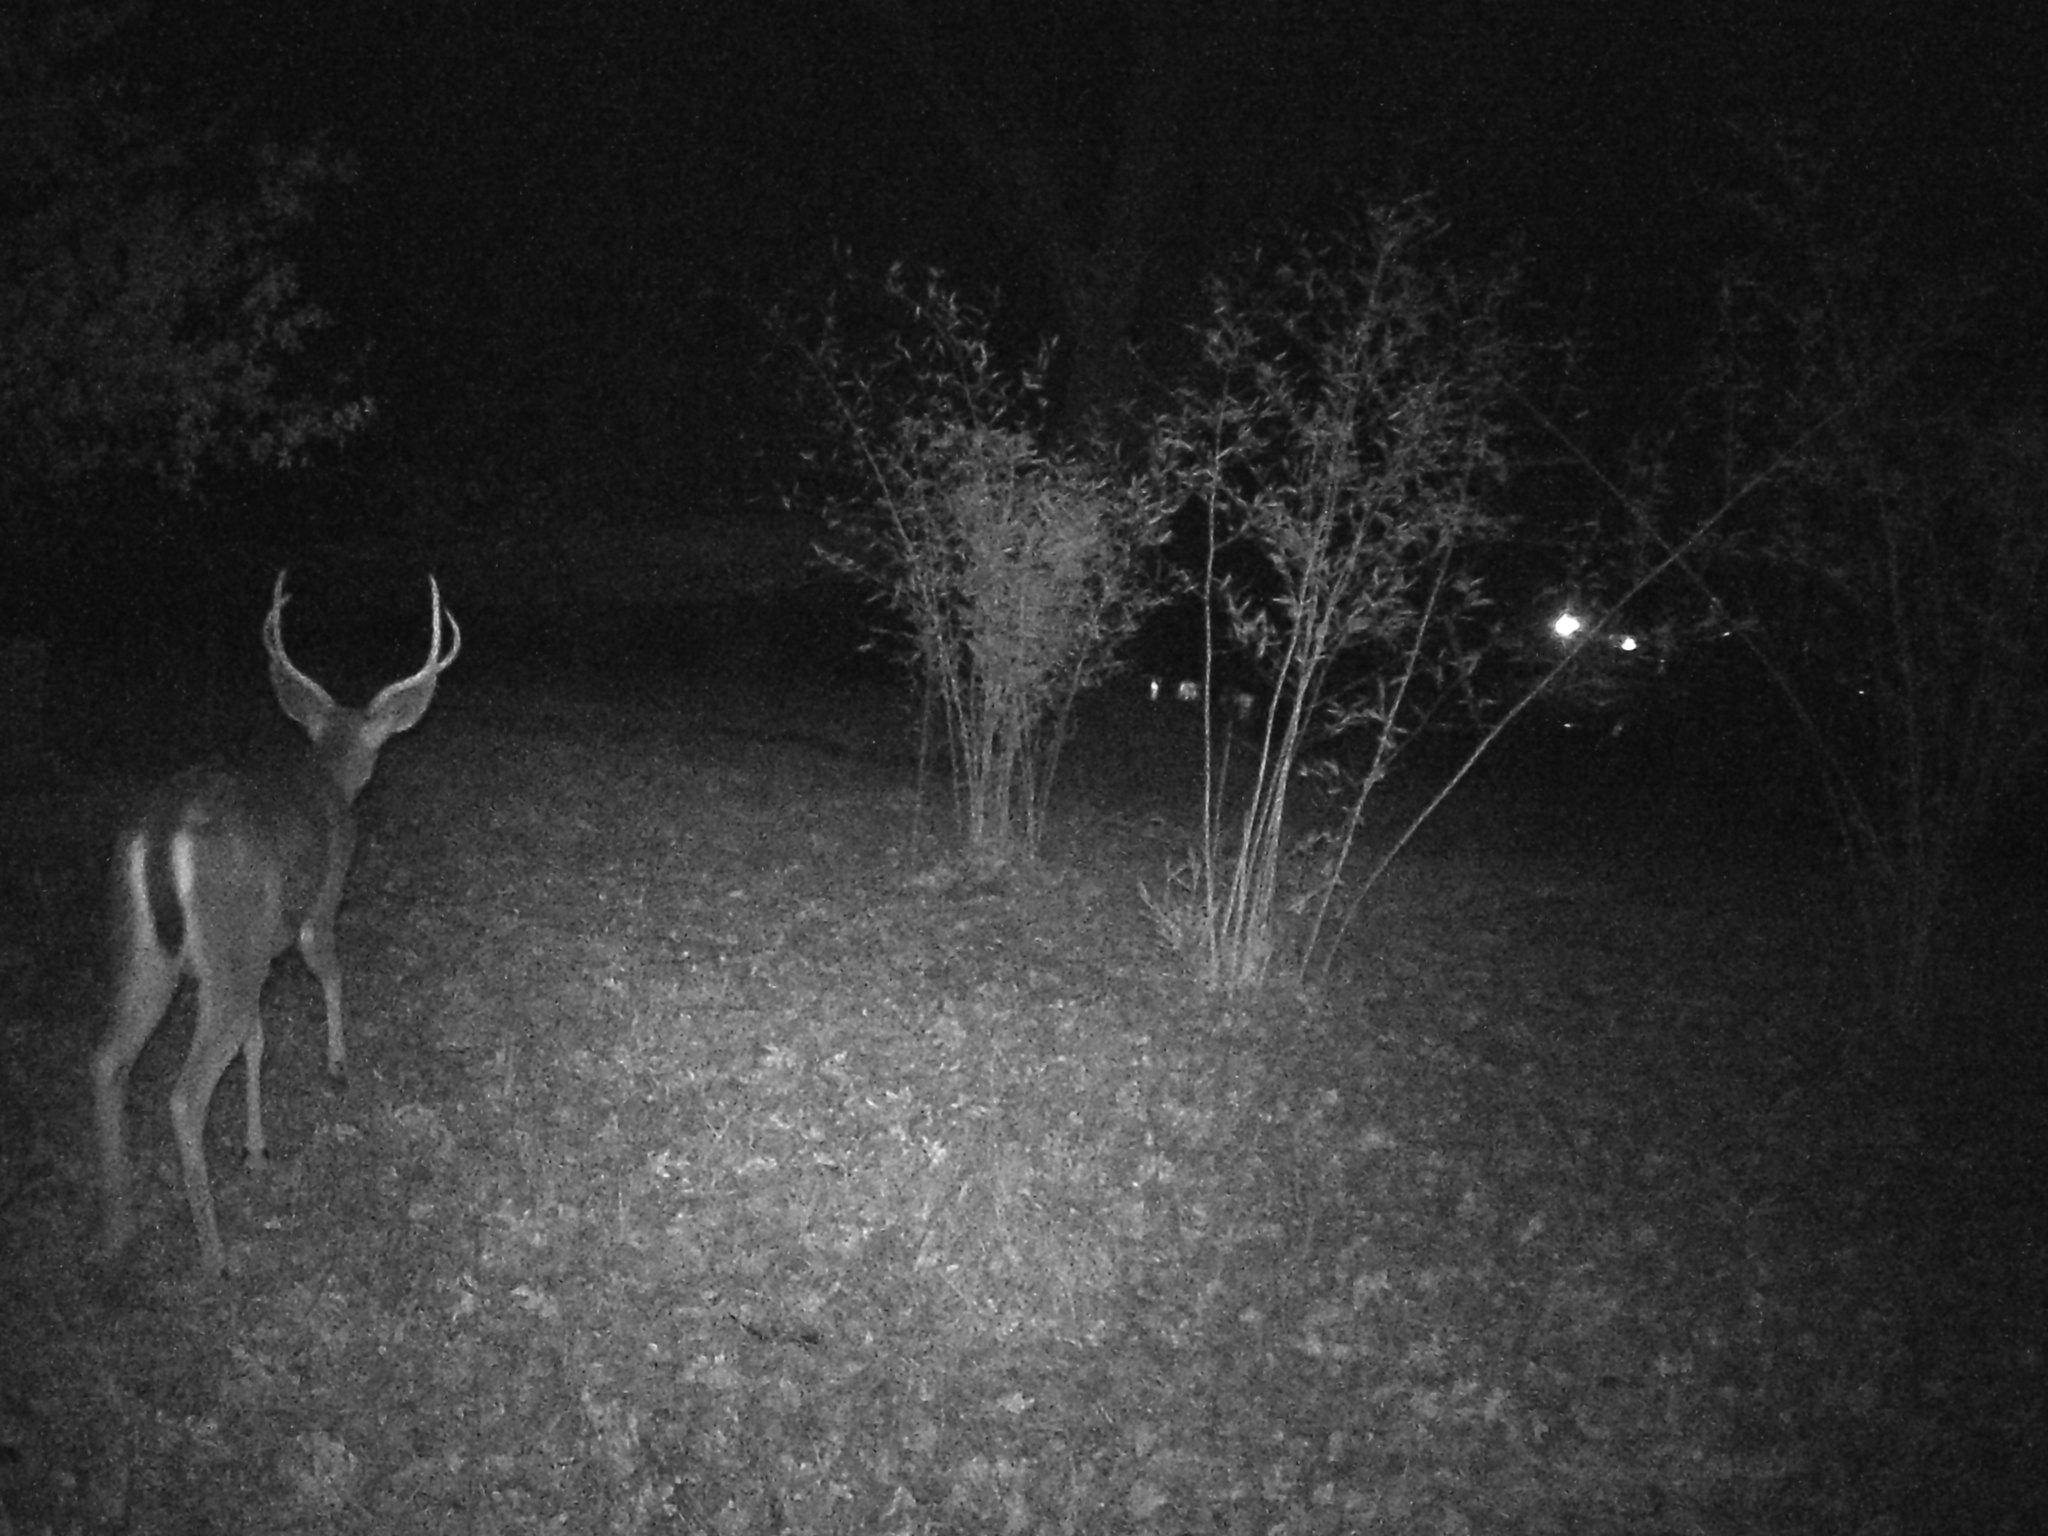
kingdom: Animalia
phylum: Chordata
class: Mammalia
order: Artiodactyla
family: Cervidae
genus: Odocoileus
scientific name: Odocoileus hemionus
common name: Mule deer
